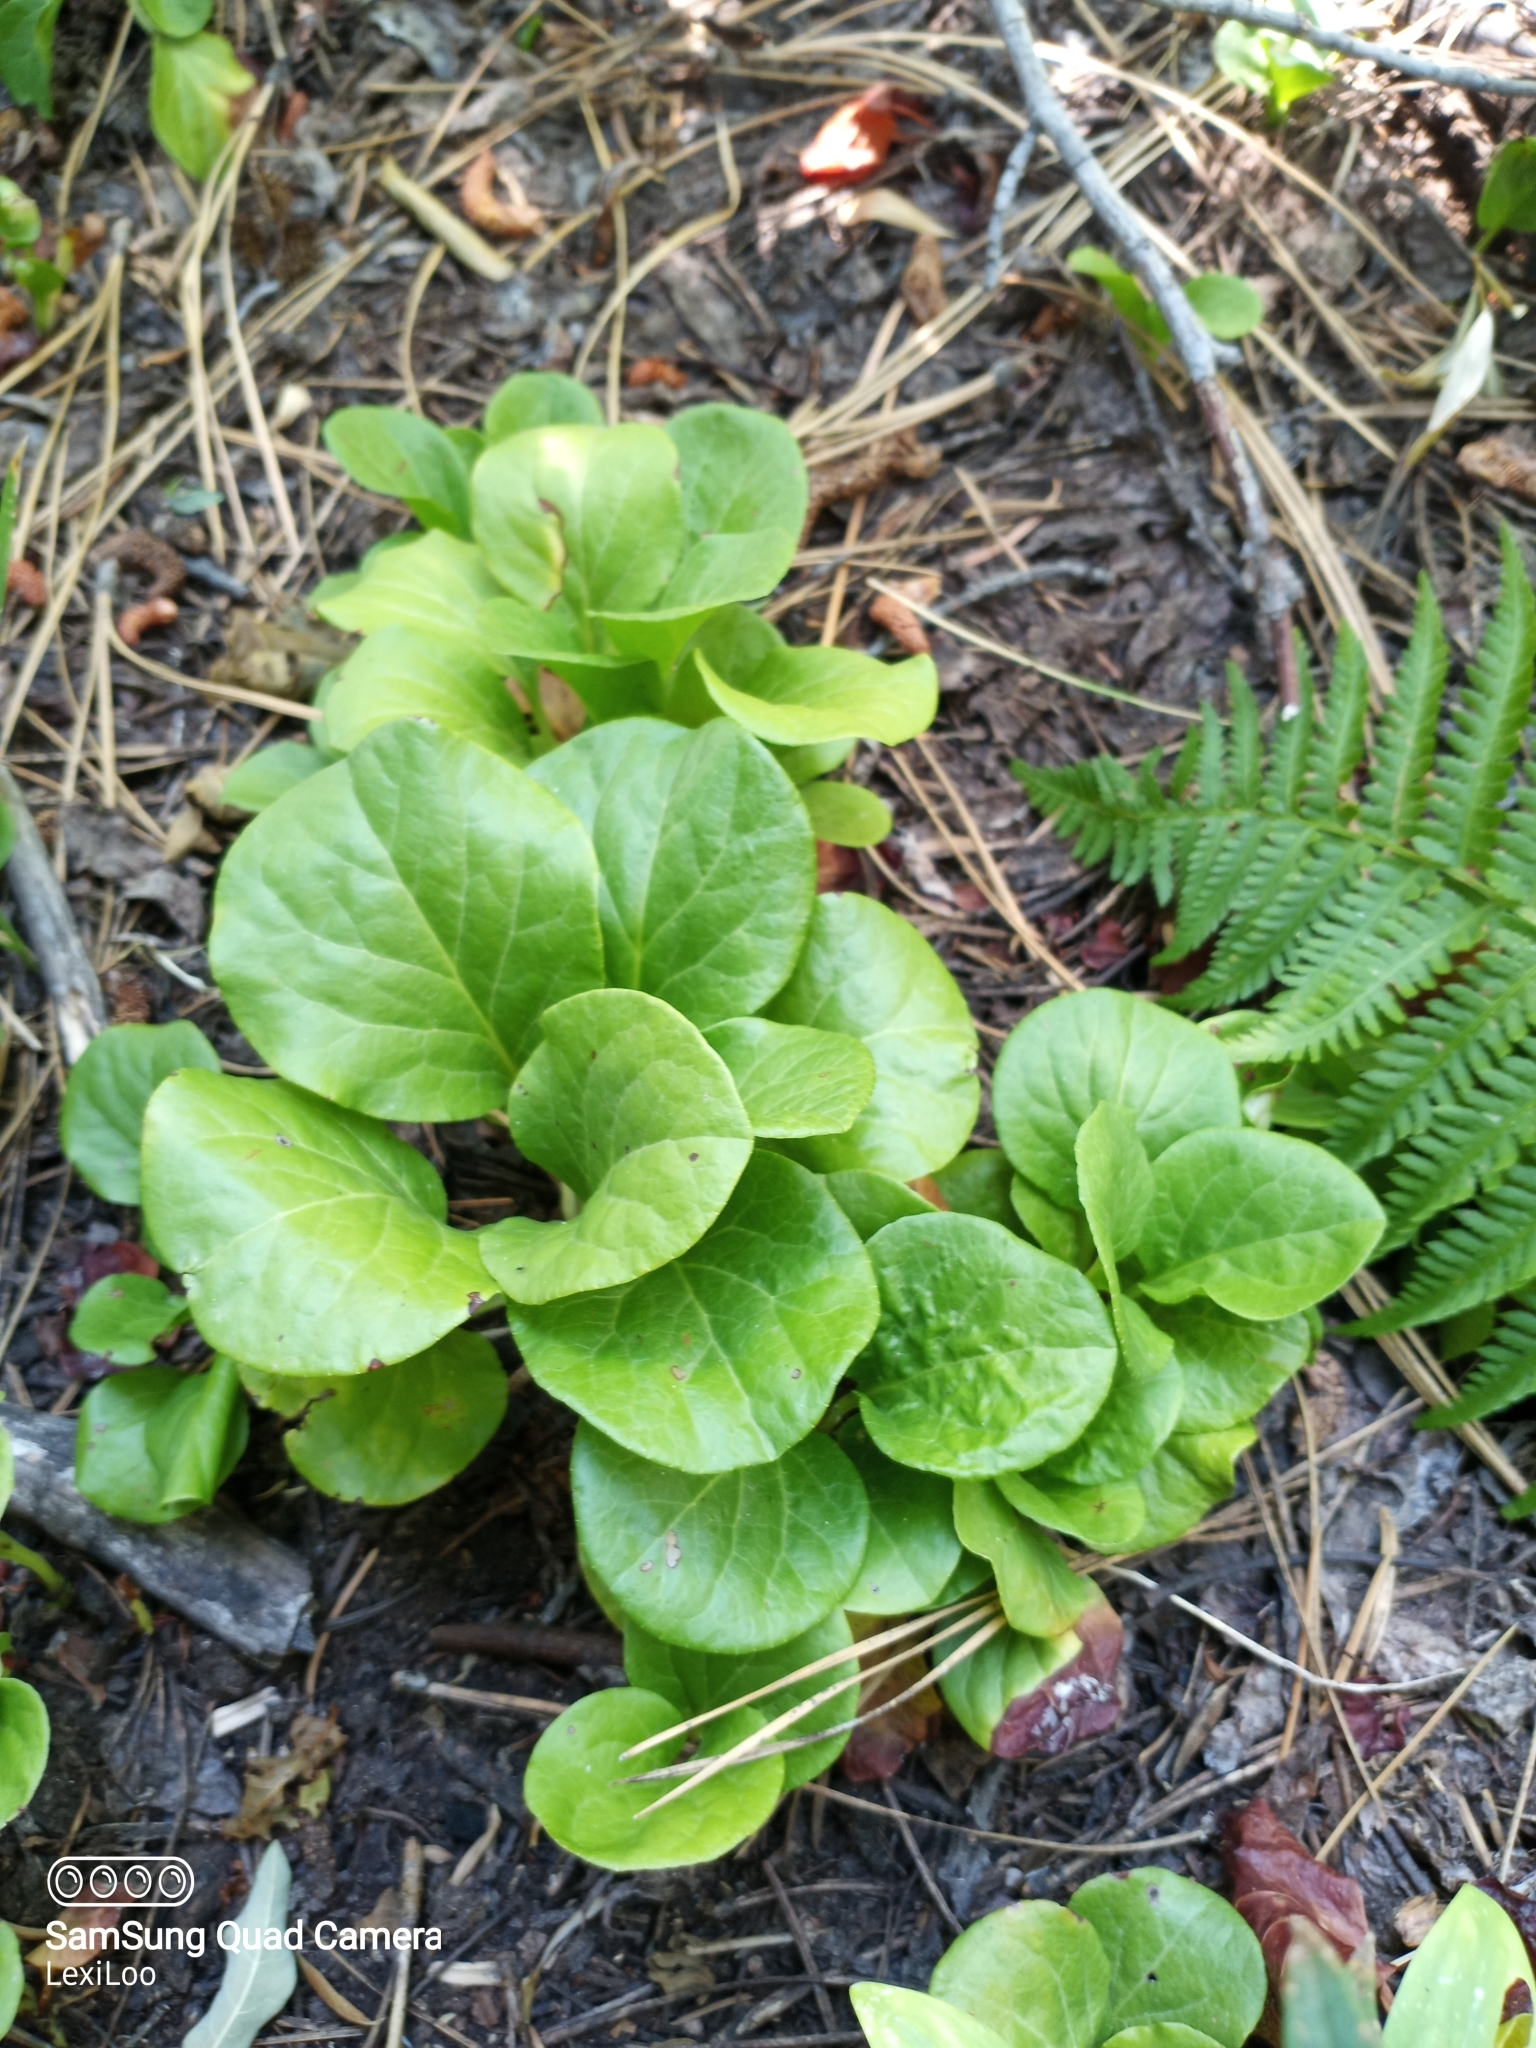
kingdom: Plantae
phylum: Tracheophyta
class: Magnoliopsida
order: Ericales
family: Ericaceae
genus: Pyrola
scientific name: Pyrola asarifolia
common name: Bog wintergreen
